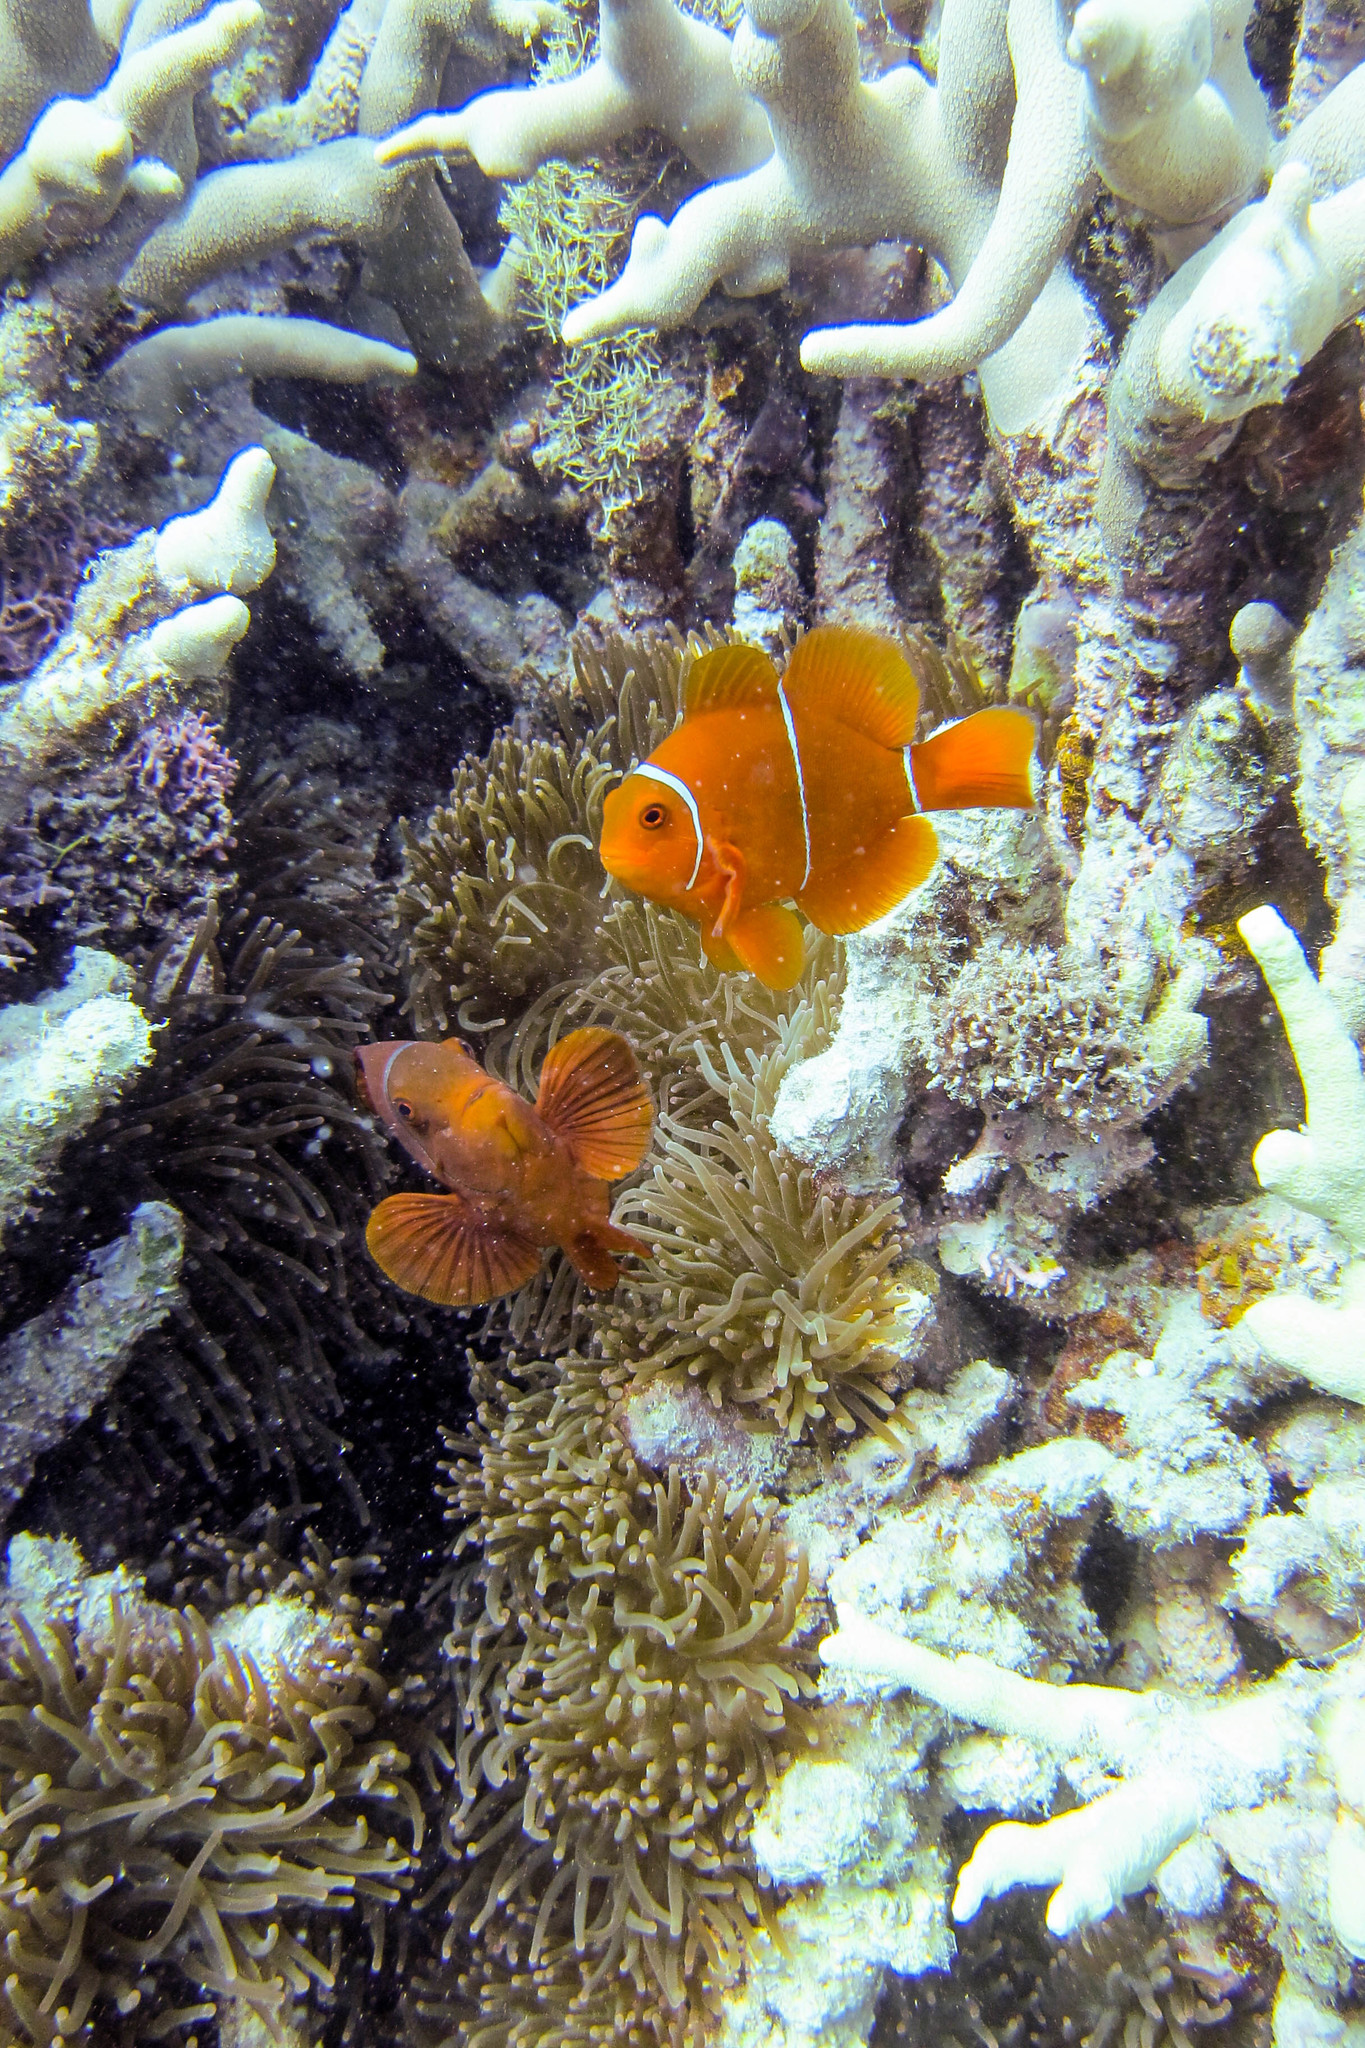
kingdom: Animalia
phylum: Chordata
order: Perciformes
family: Pomacentridae
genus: Premnas
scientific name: Premnas biaculeatus
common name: Spinecheek anemonefish
